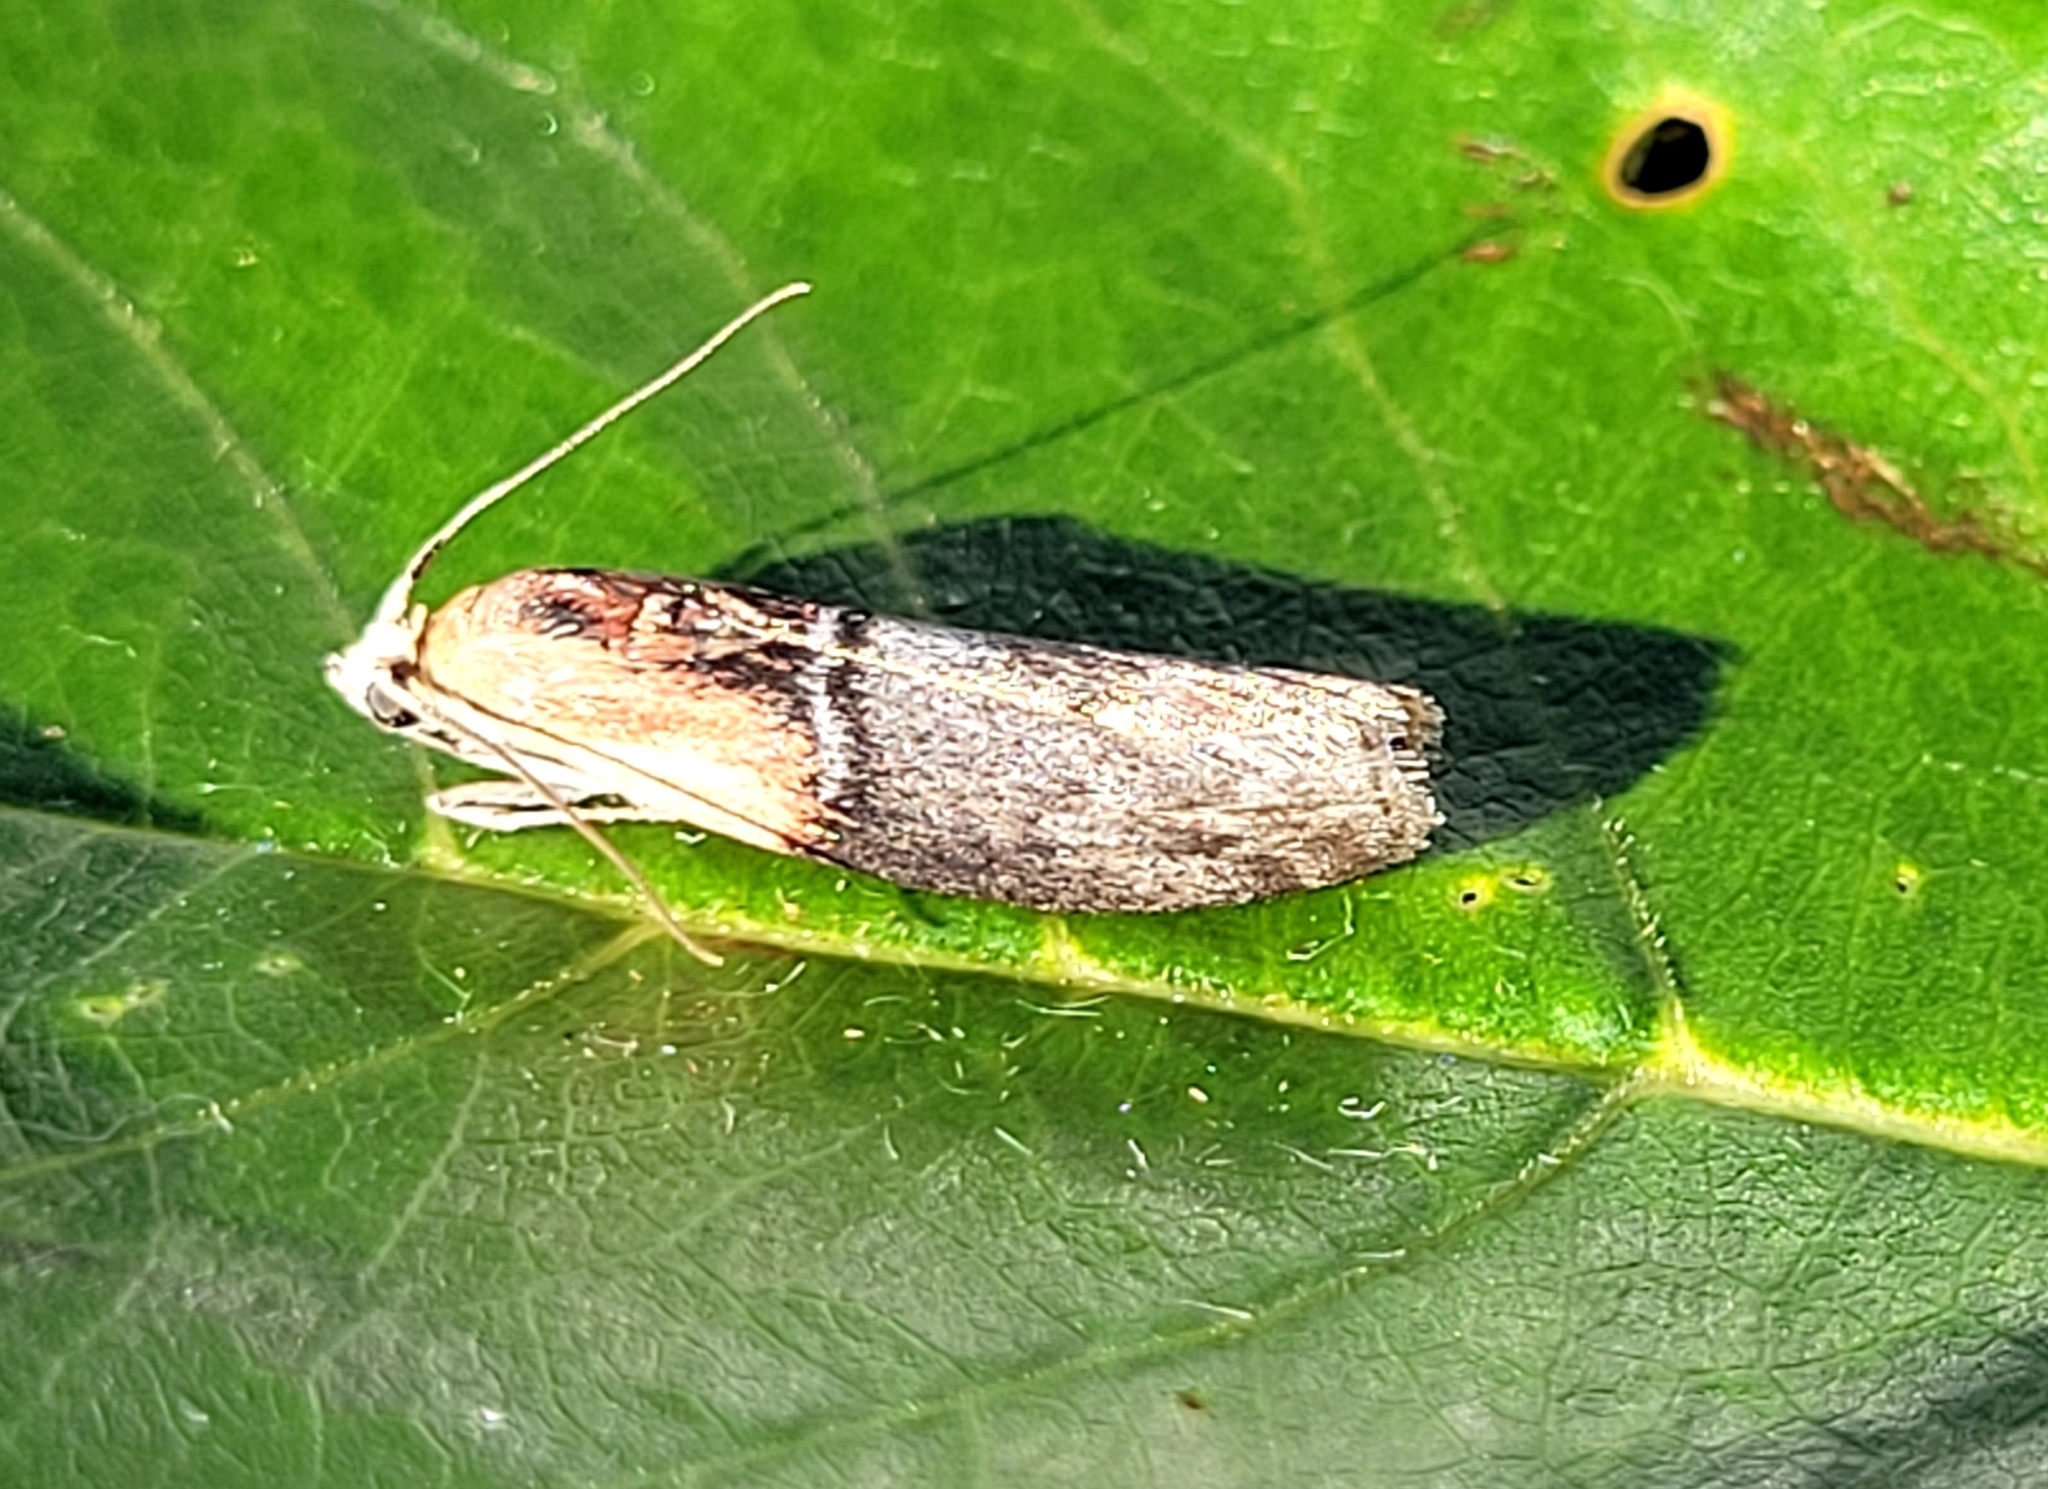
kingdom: Animalia
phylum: Arthropoda
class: Insecta
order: Lepidoptera
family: Pyralidae
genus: Sciota
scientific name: Sciota basilaris
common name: Yellow-shouldered leafroller
